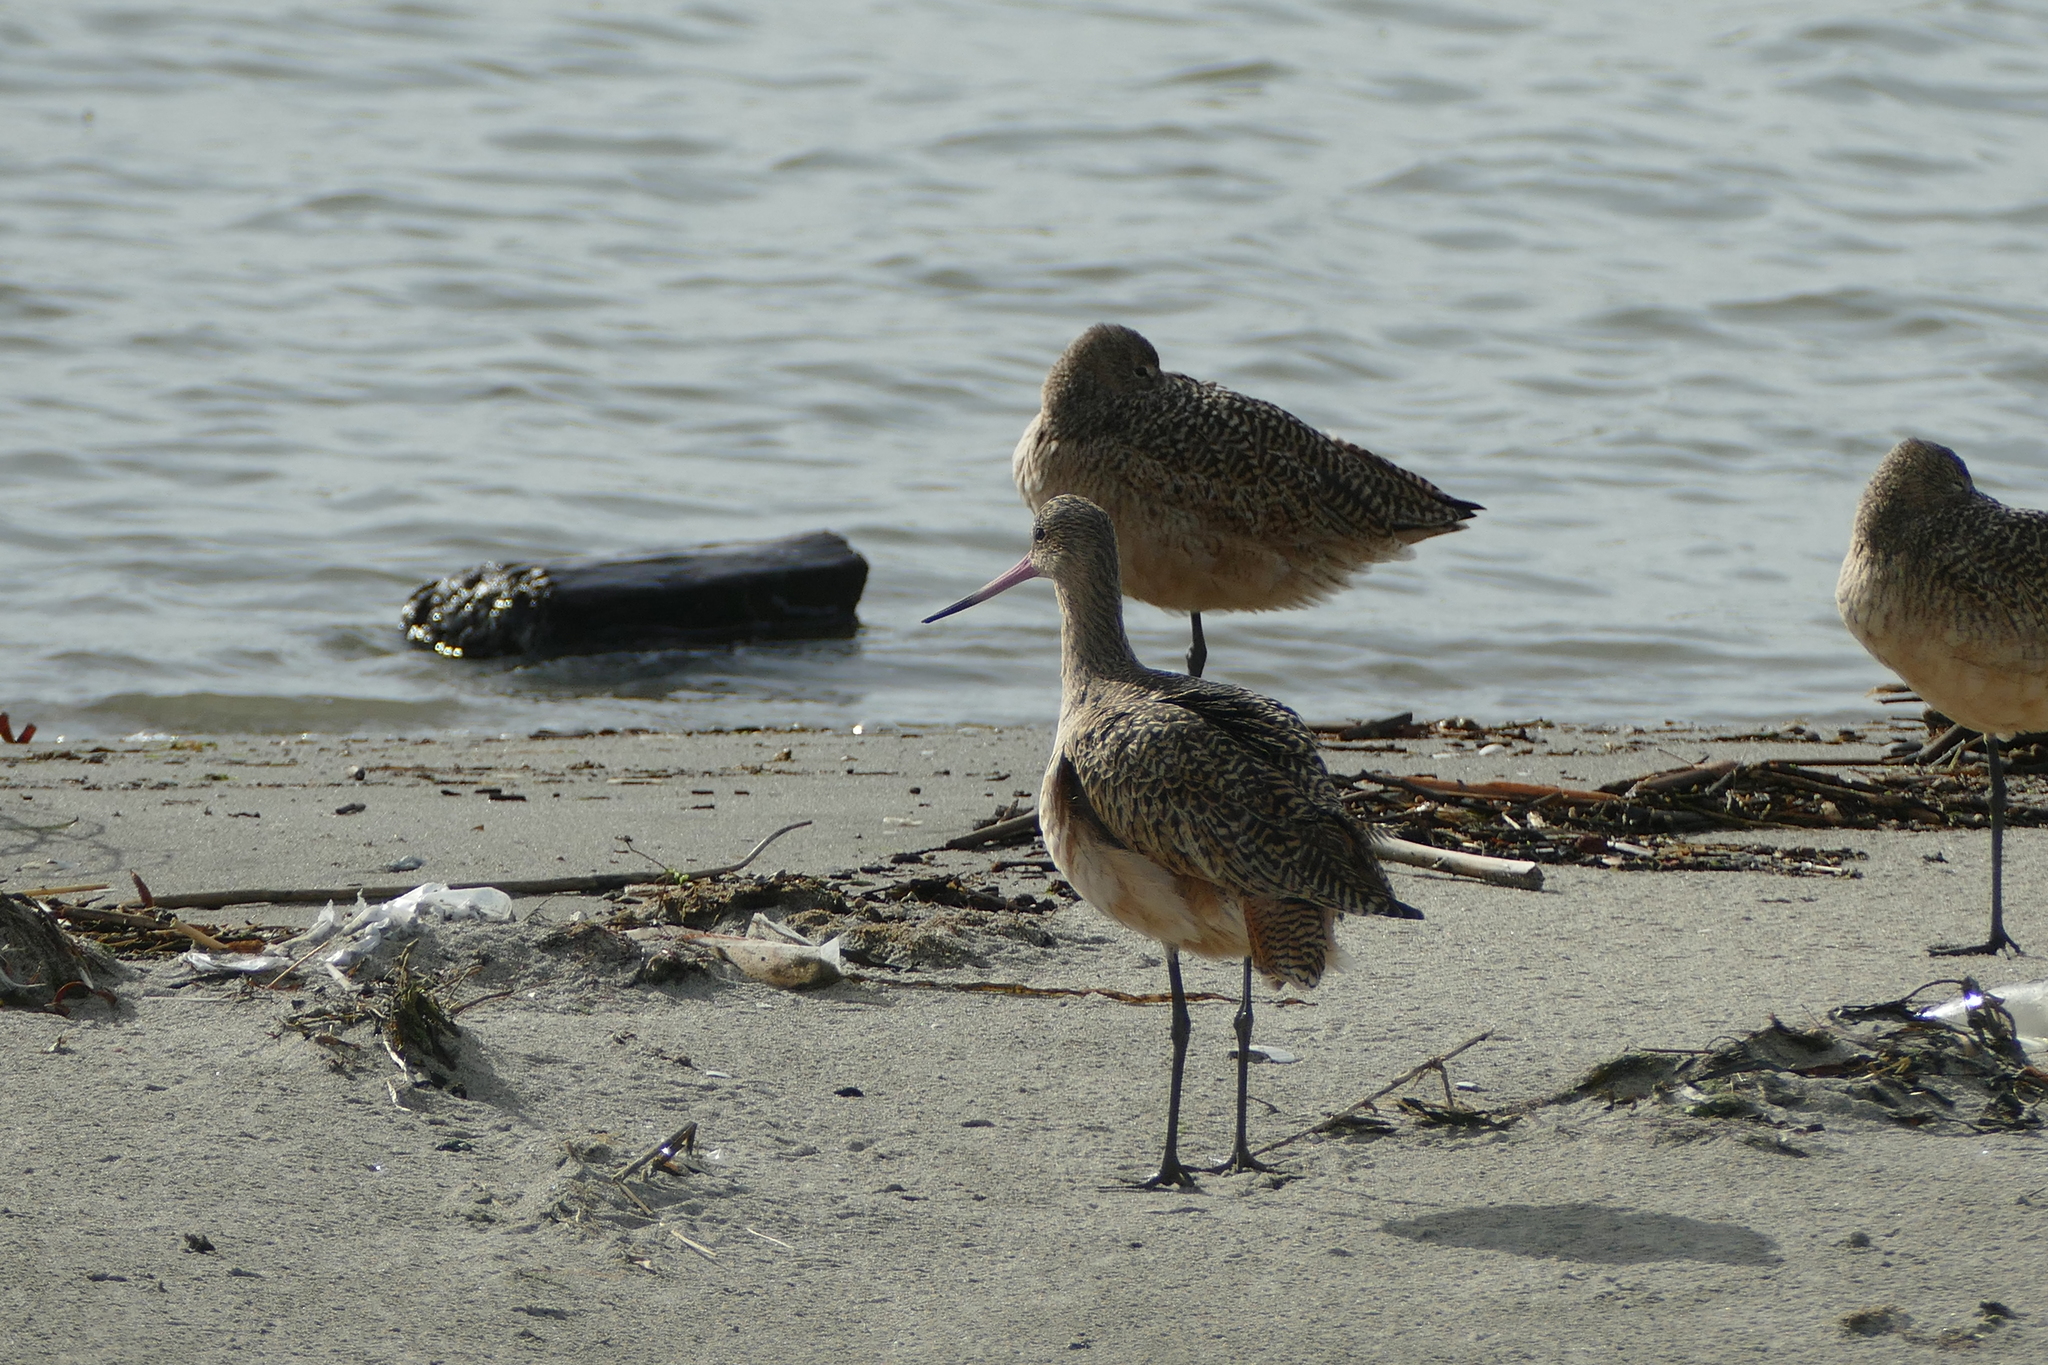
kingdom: Animalia
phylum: Chordata
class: Aves
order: Charadriiformes
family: Scolopacidae
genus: Limosa
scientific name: Limosa fedoa
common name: Marbled godwit
